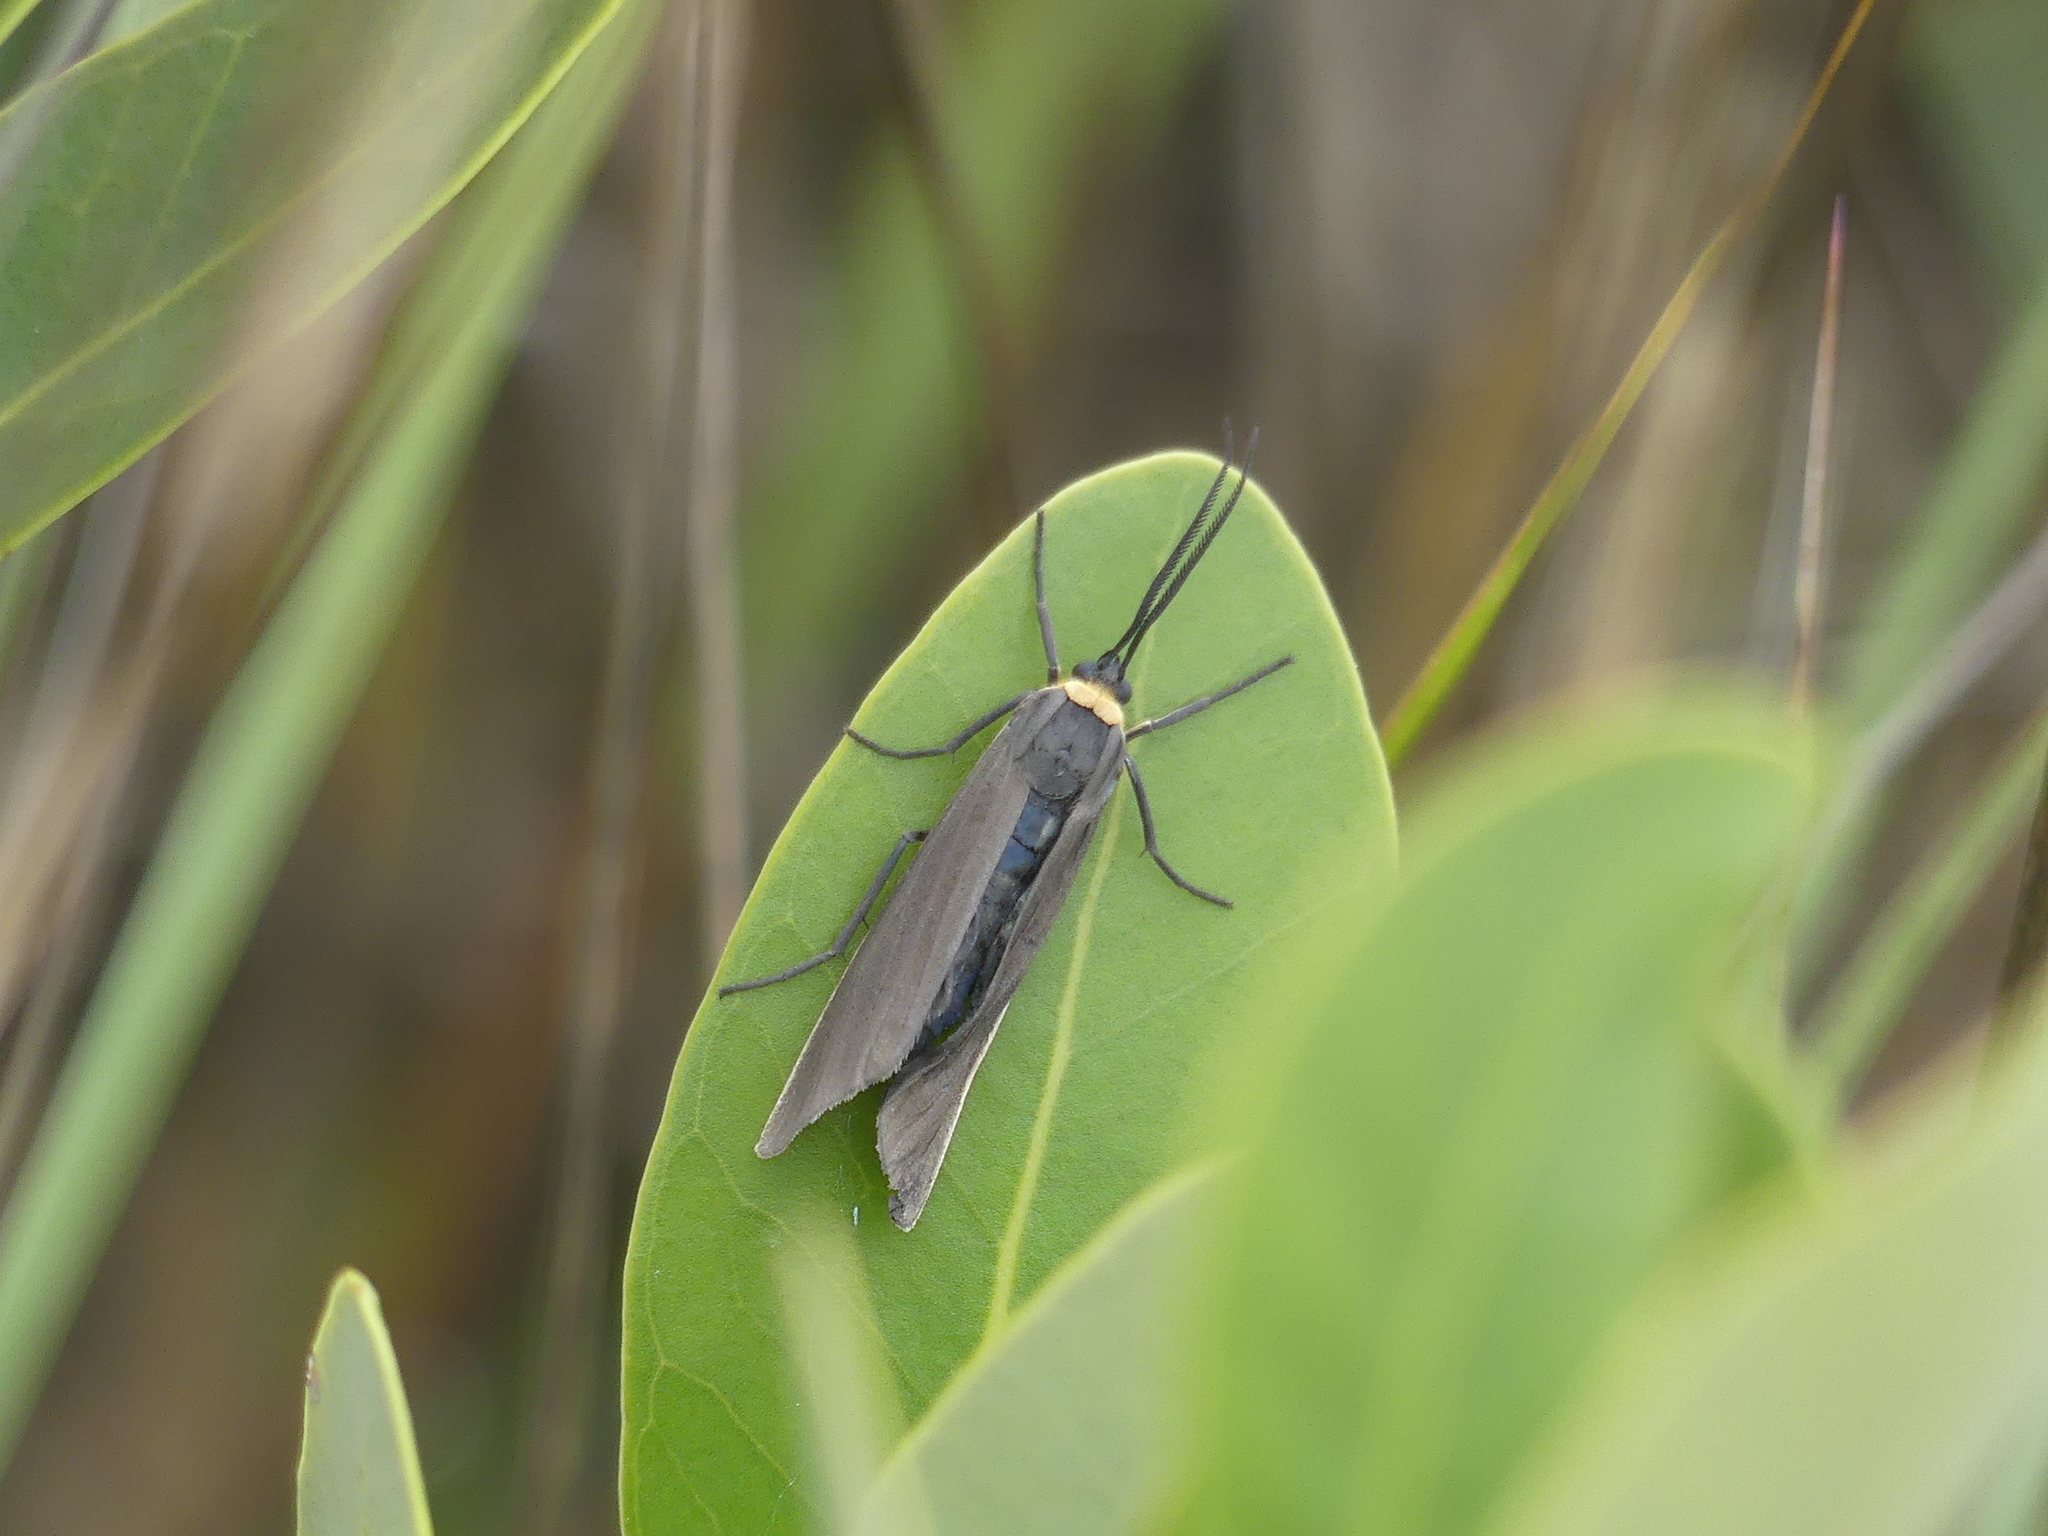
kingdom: Animalia
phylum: Arthropoda
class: Insecta
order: Lepidoptera
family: Erebidae
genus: Cisseps
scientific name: Cisseps fulvicollis
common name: Yellow-collared scape moth
